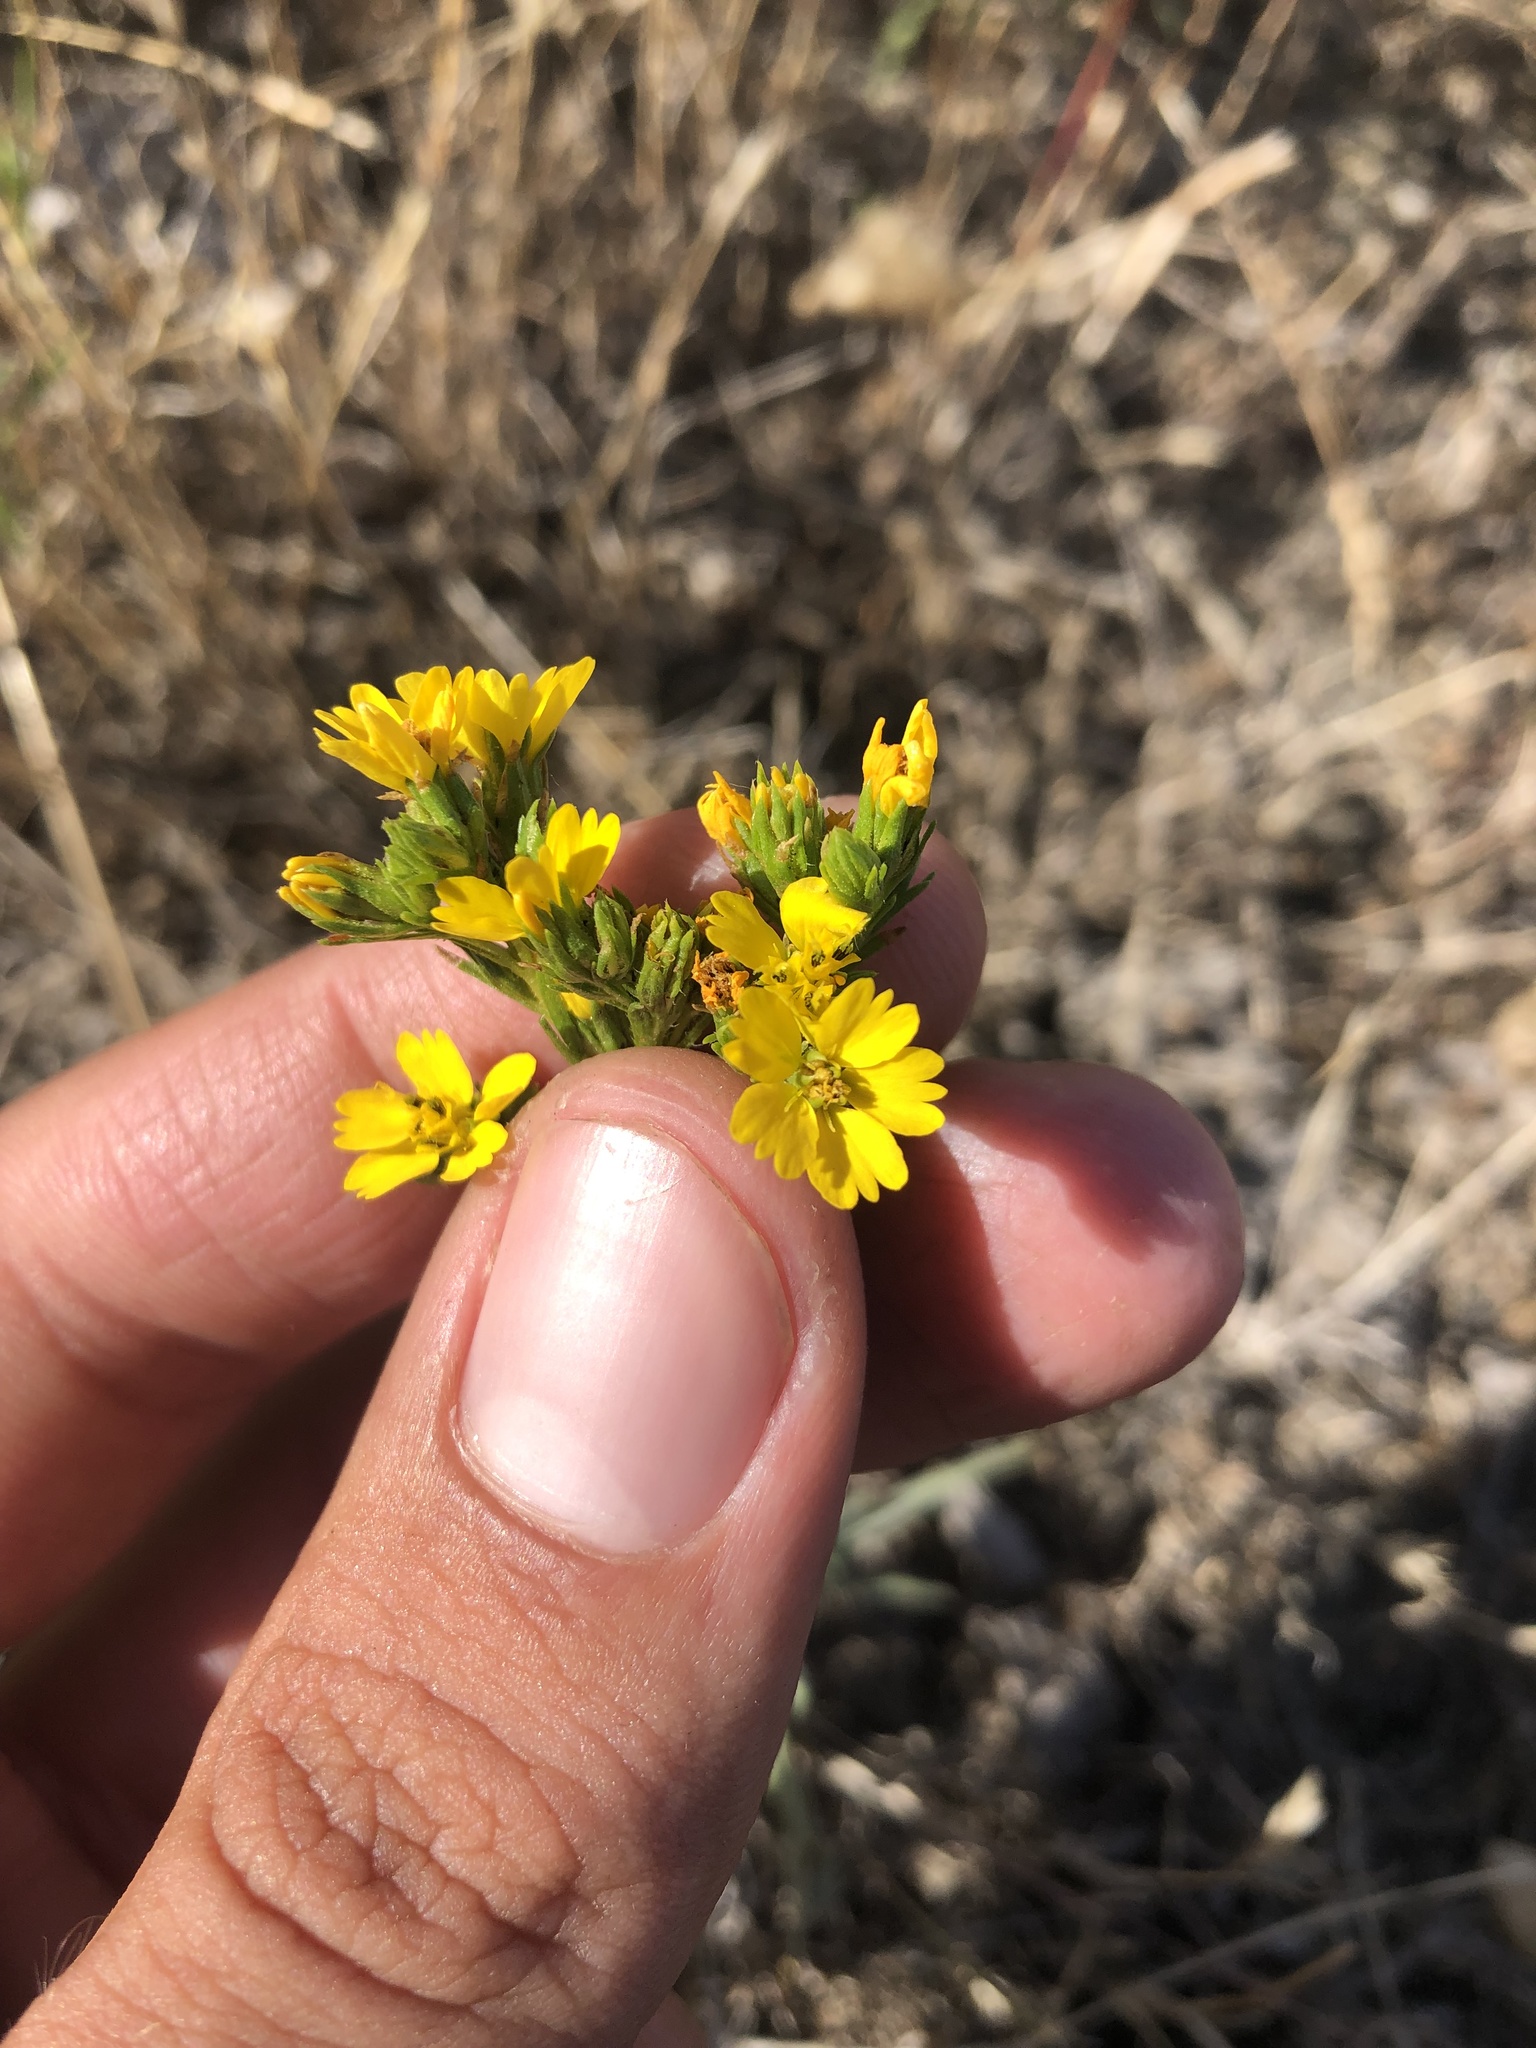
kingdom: Plantae
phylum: Tracheophyta
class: Magnoliopsida
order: Asterales
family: Asteraceae
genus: Deinandra
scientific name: Deinandra fasciculata
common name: Clustered tarweed
